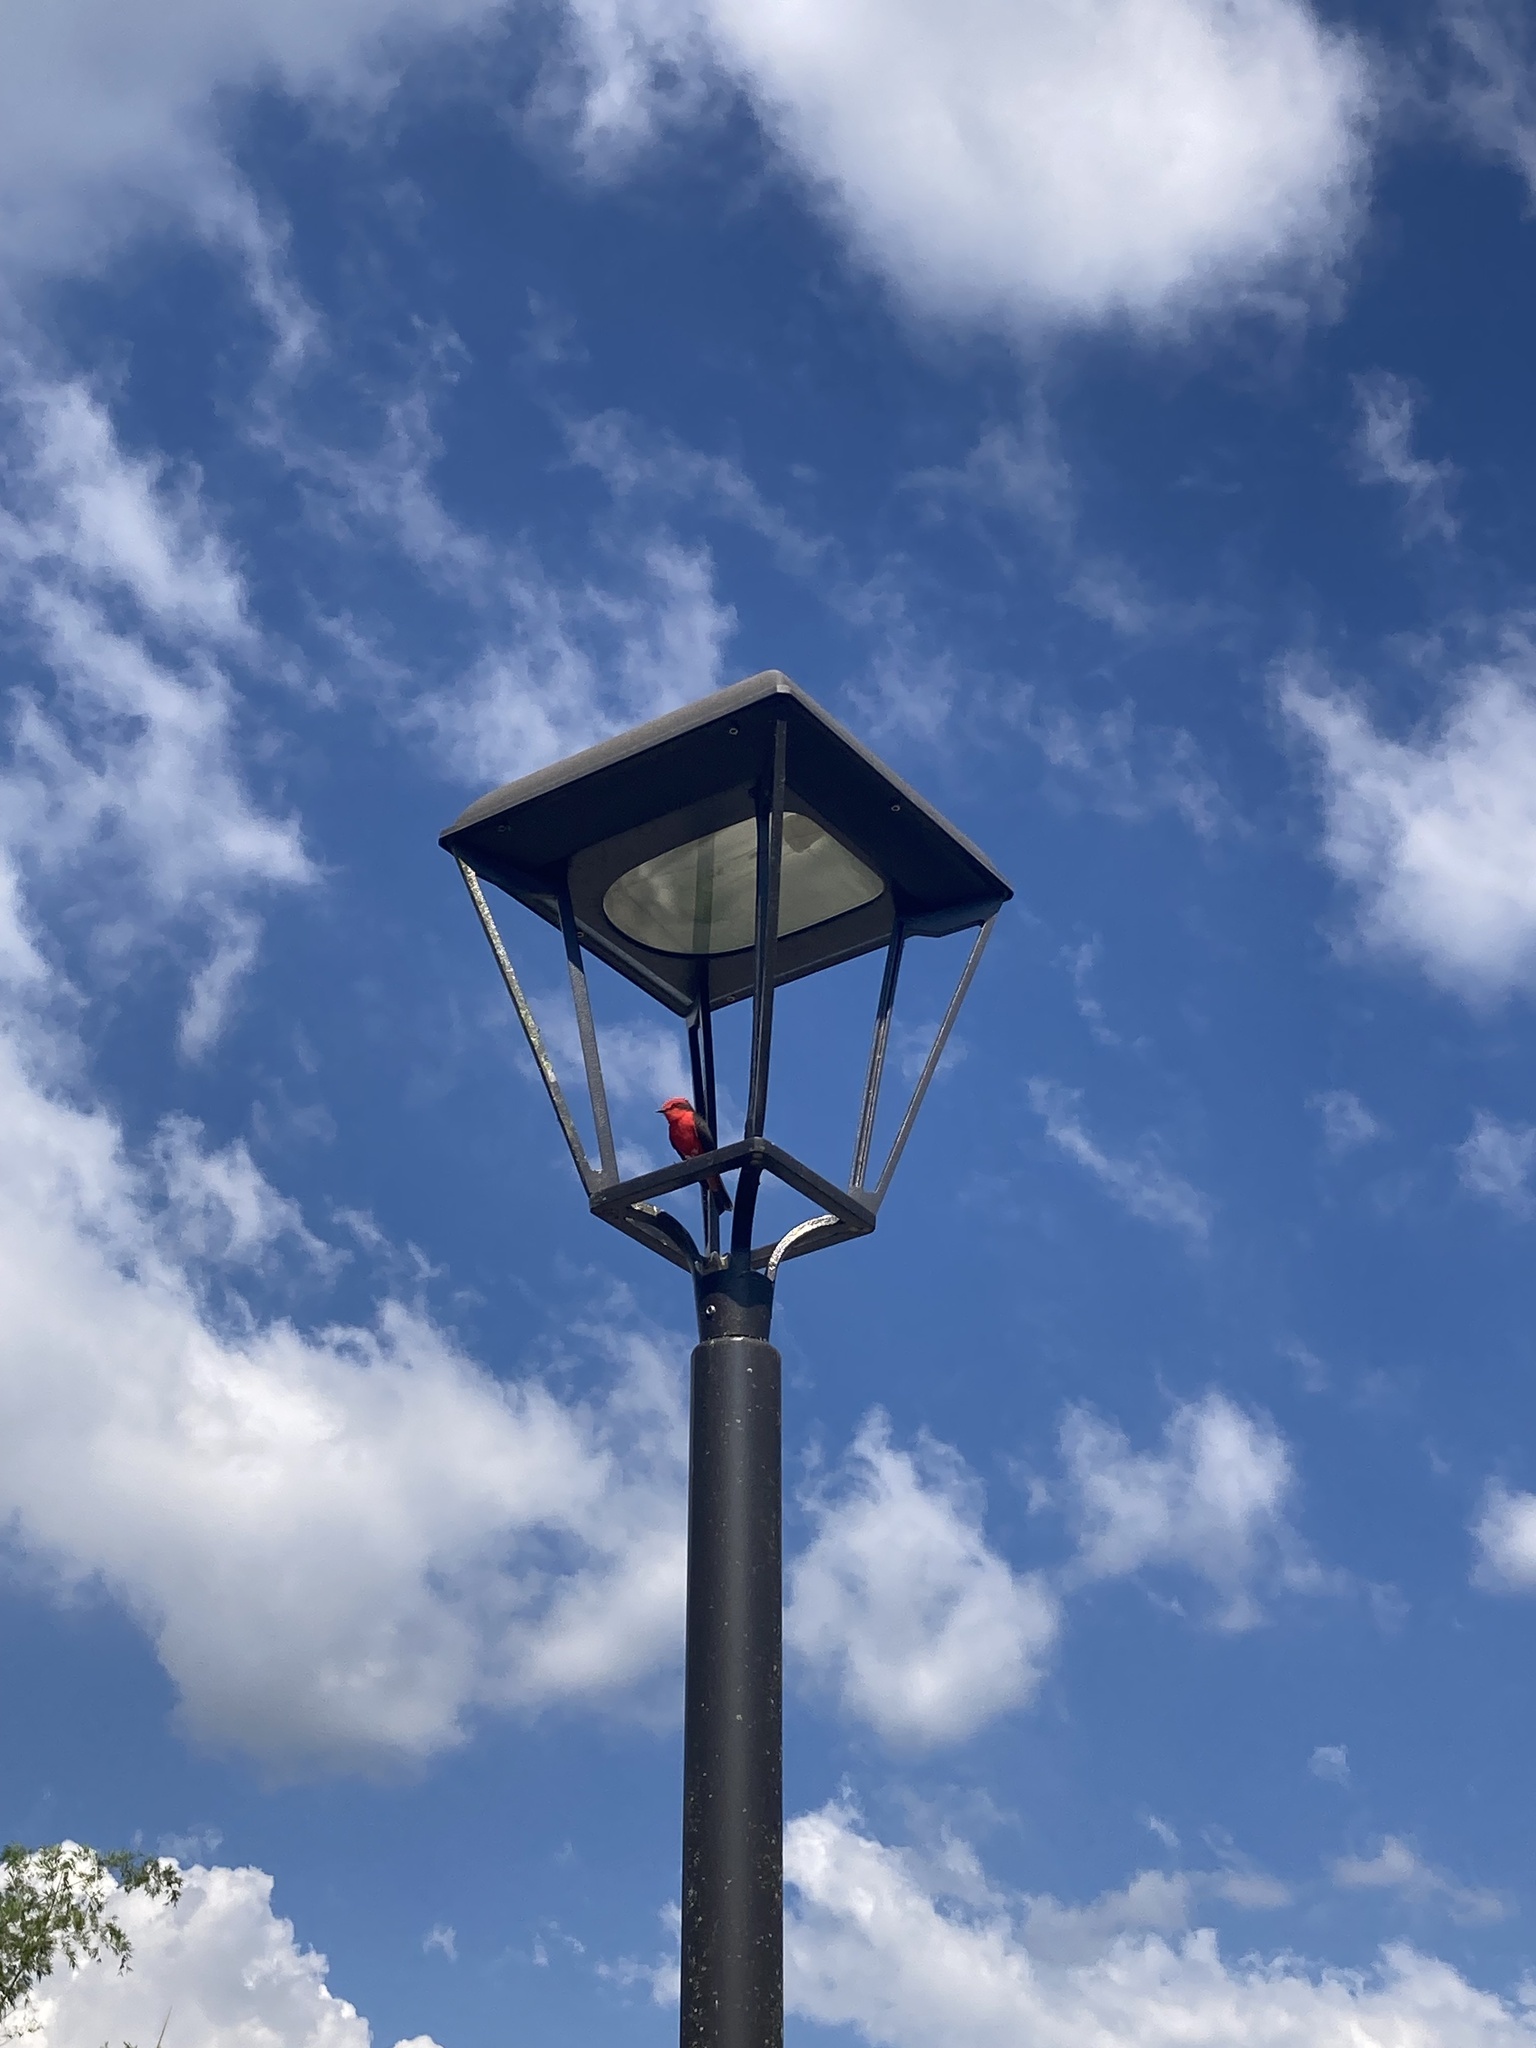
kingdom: Animalia
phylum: Chordata
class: Aves
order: Passeriformes
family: Tyrannidae
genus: Pyrocephalus
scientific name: Pyrocephalus rubinus
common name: Vermilion flycatcher
